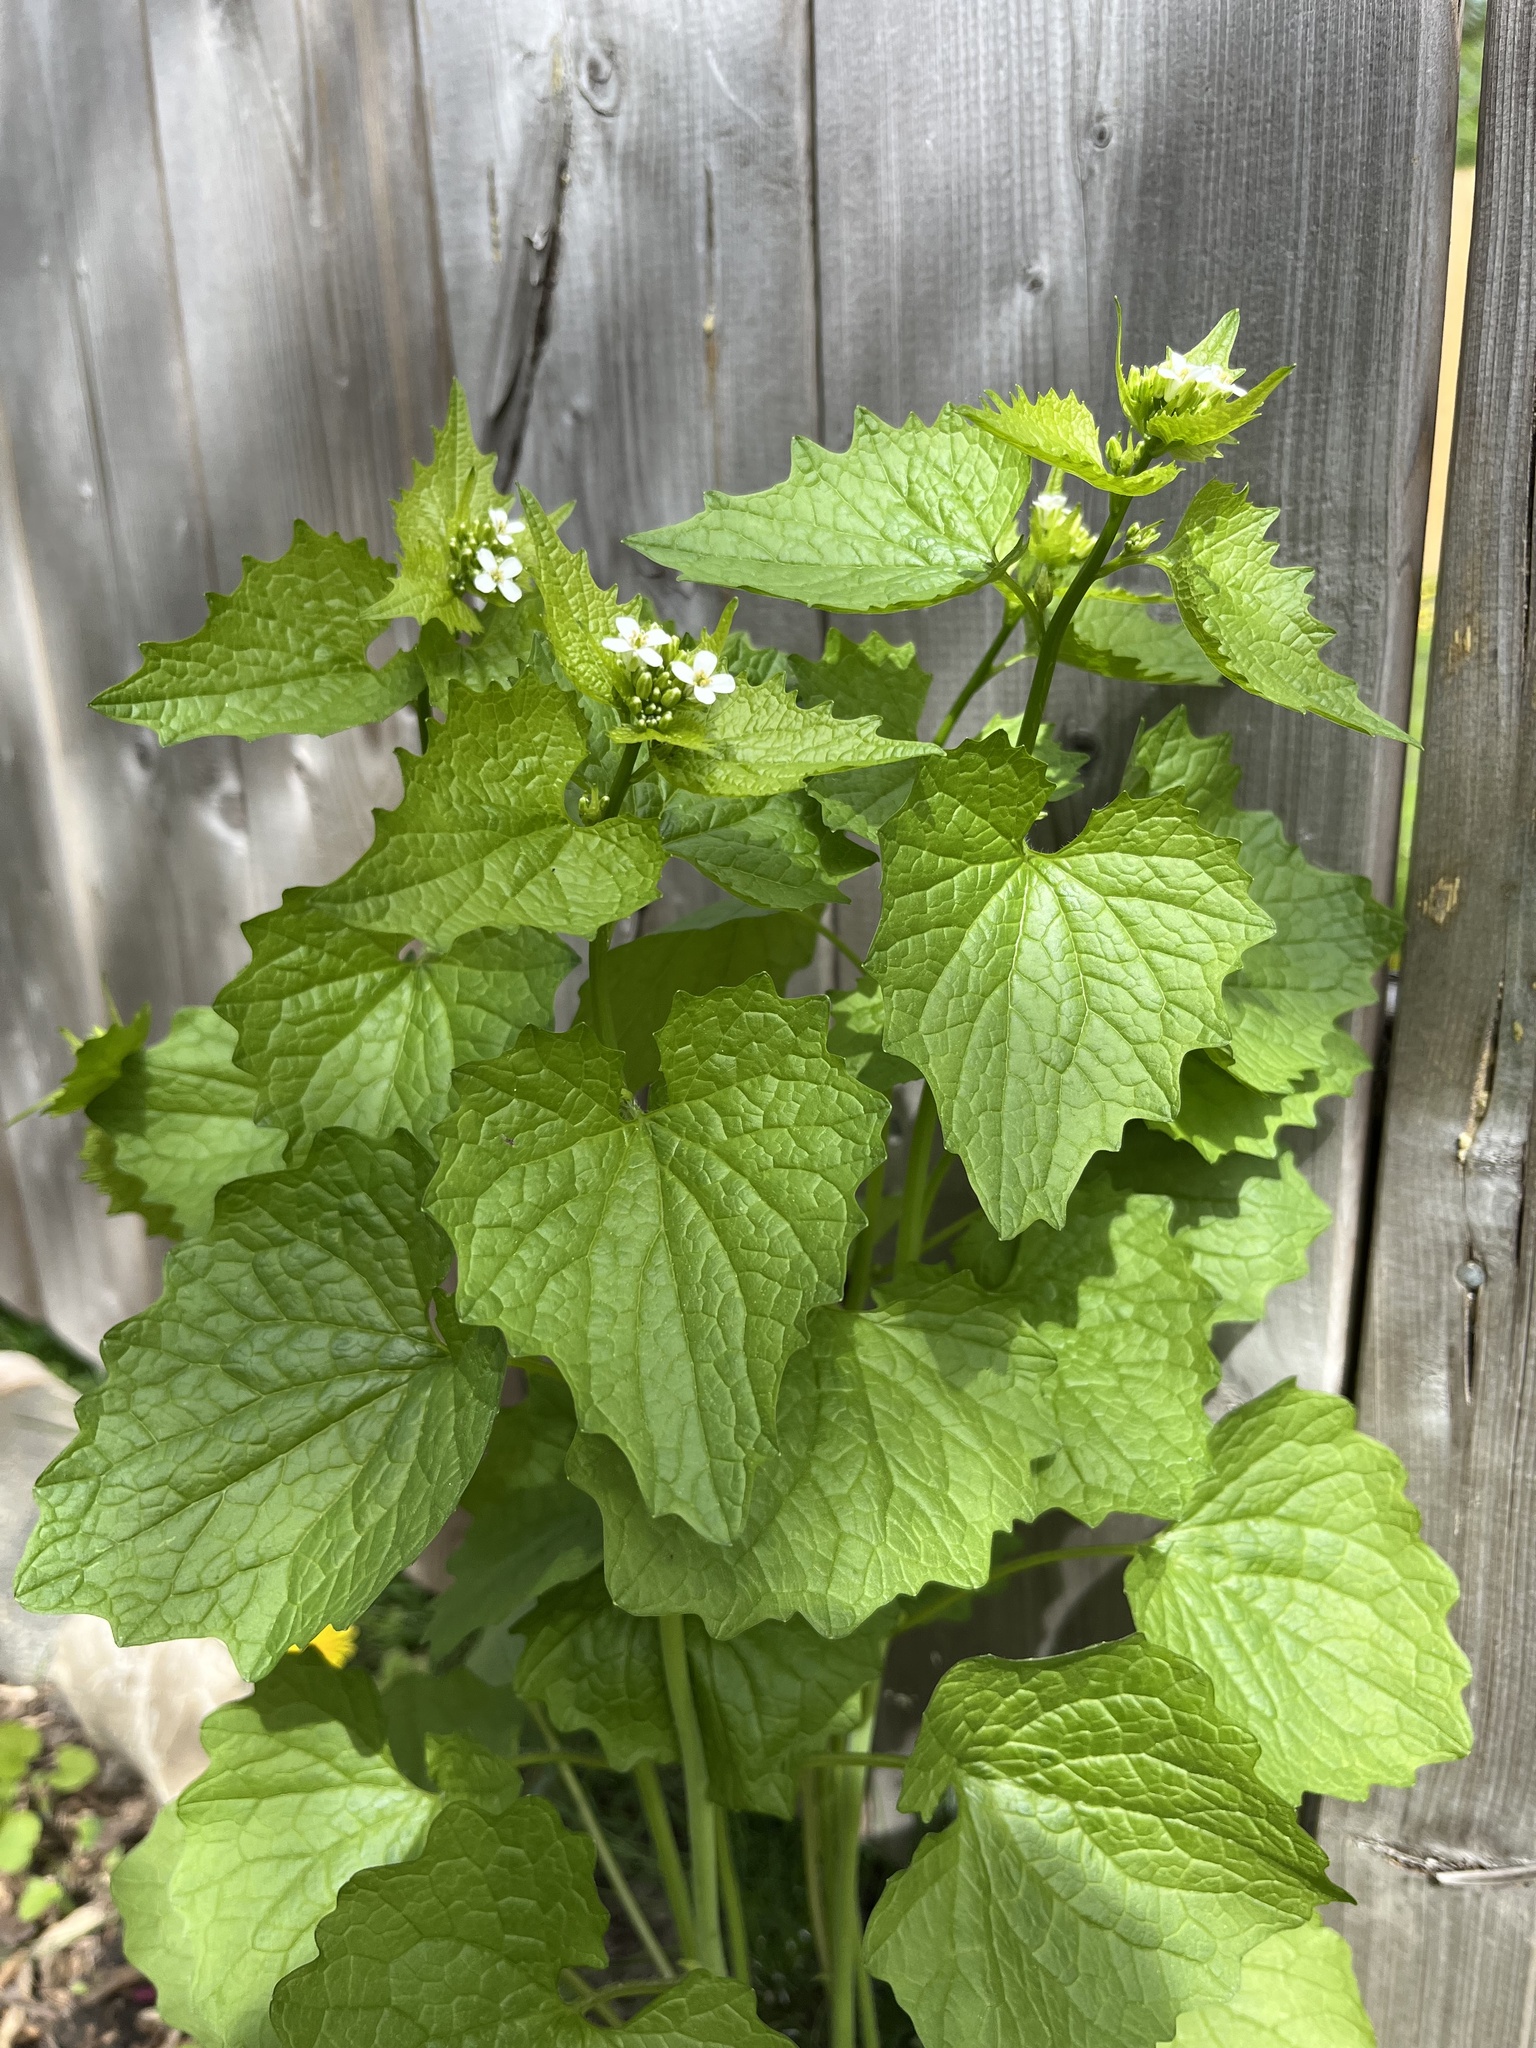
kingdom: Plantae
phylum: Tracheophyta
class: Magnoliopsida
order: Brassicales
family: Brassicaceae
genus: Alliaria
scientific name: Alliaria petiolata
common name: Garlic mustard
